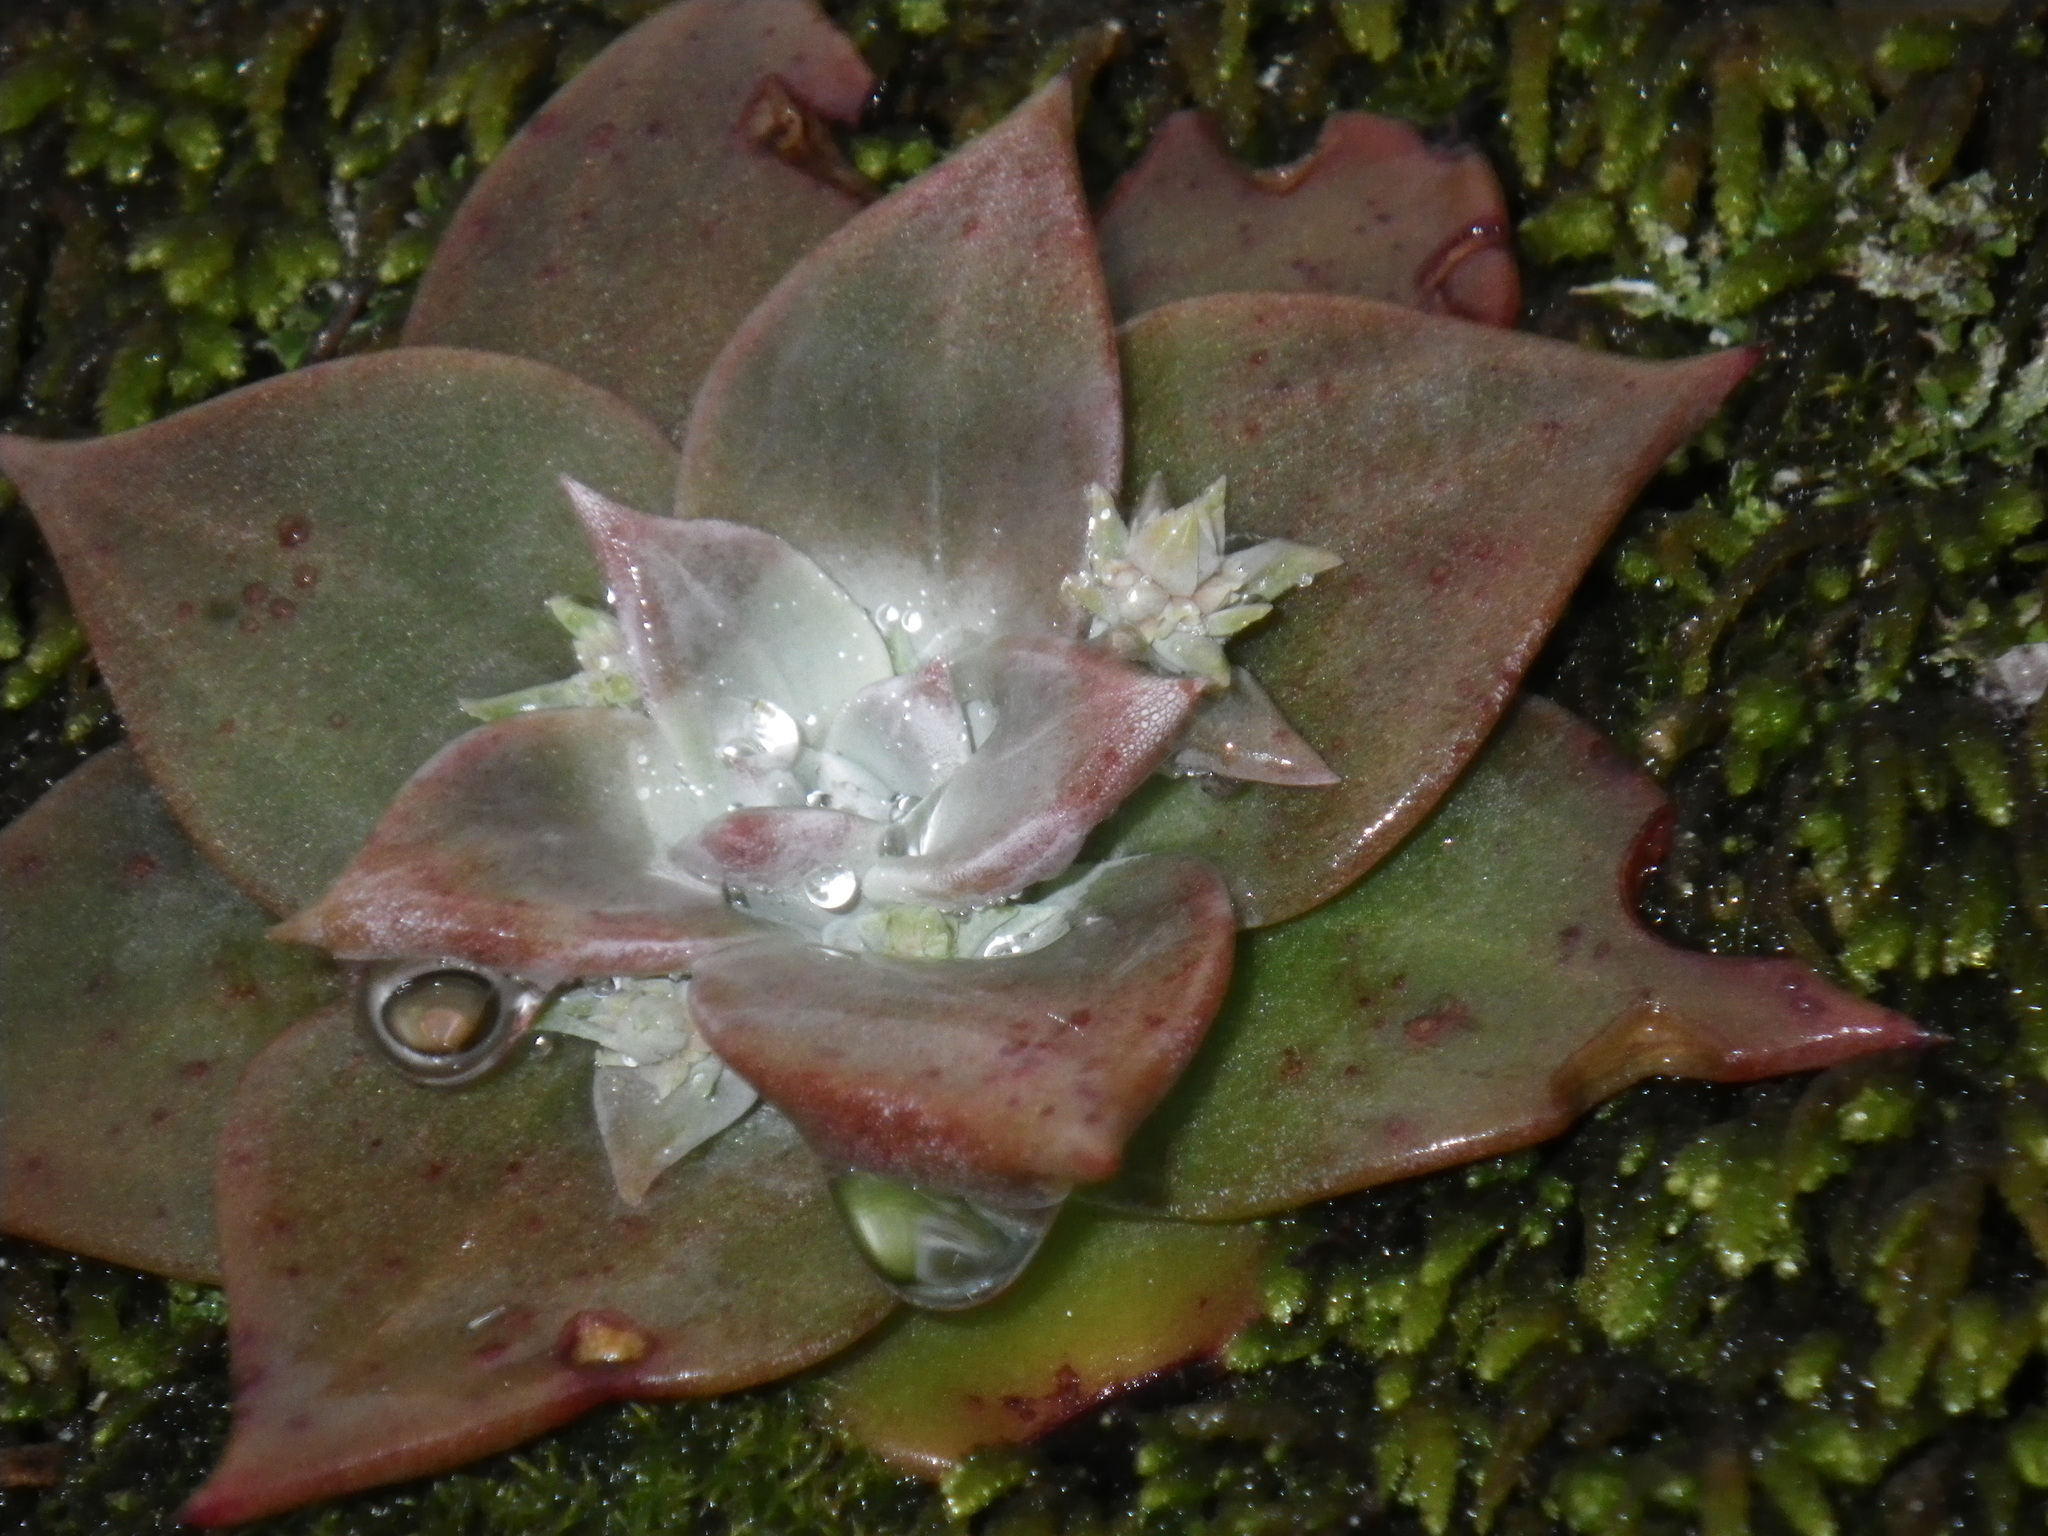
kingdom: Plantae
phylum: Tracheophyta
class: Magnoliopsida
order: Saxifragales
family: Crassulaceae
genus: Dudleya
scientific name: Dudleya cymosa
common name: Canyon dudleya
